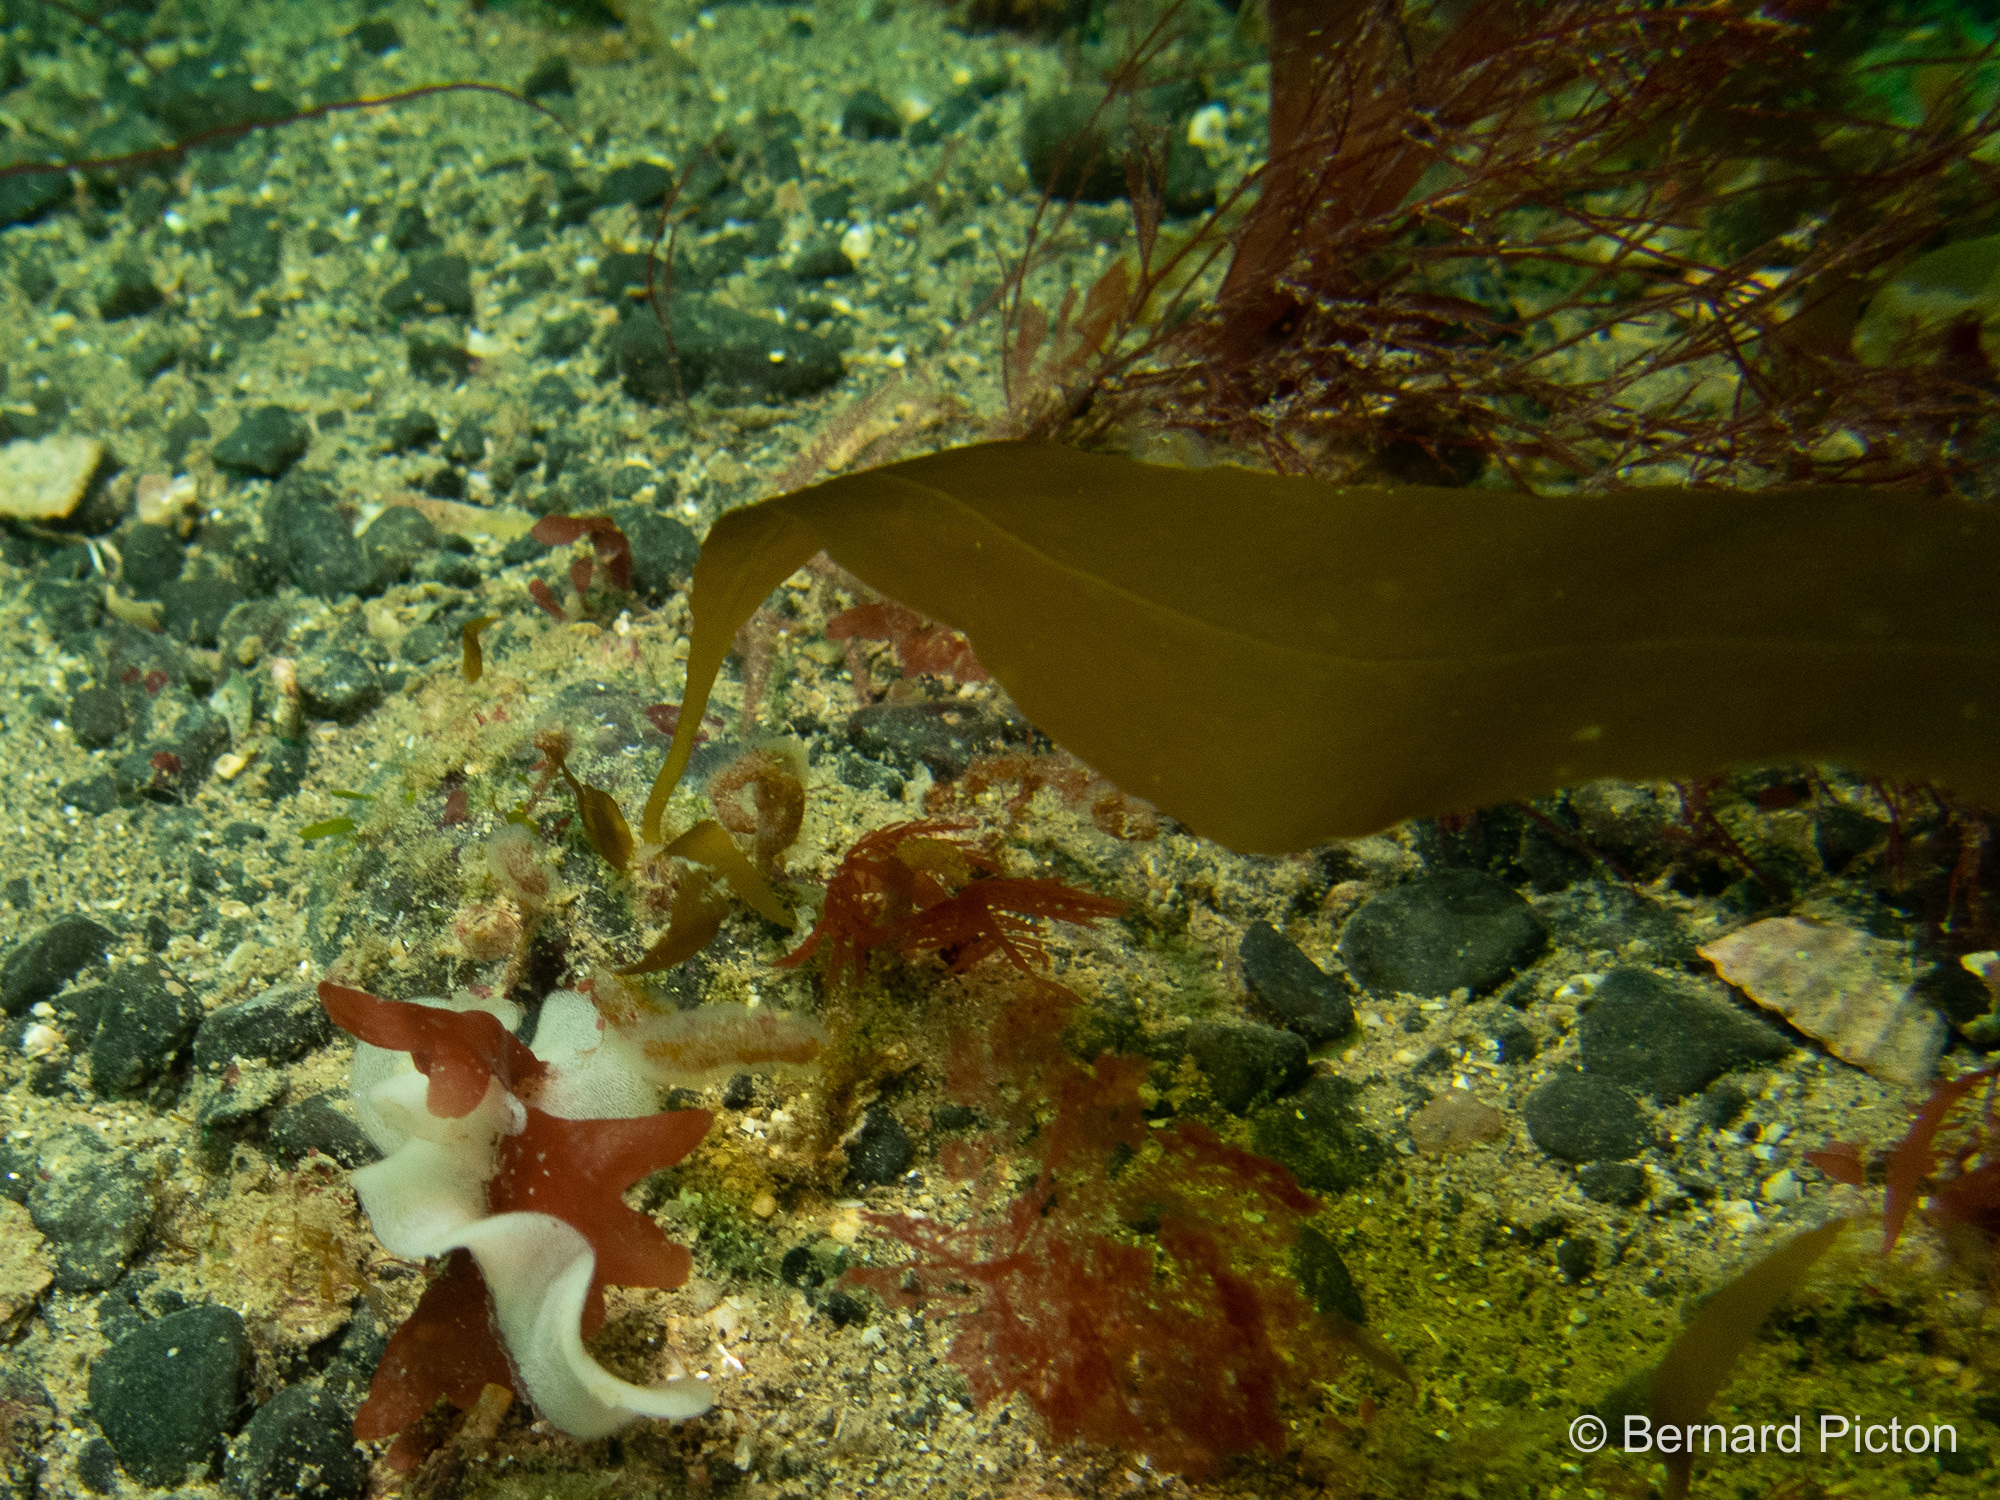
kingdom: Chromista
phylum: Ochrophyta
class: Phaeophyceae
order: Desmarestiales
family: Desmarestiaceae
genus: Desmarestia
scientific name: Desmarestia dudresnayi
